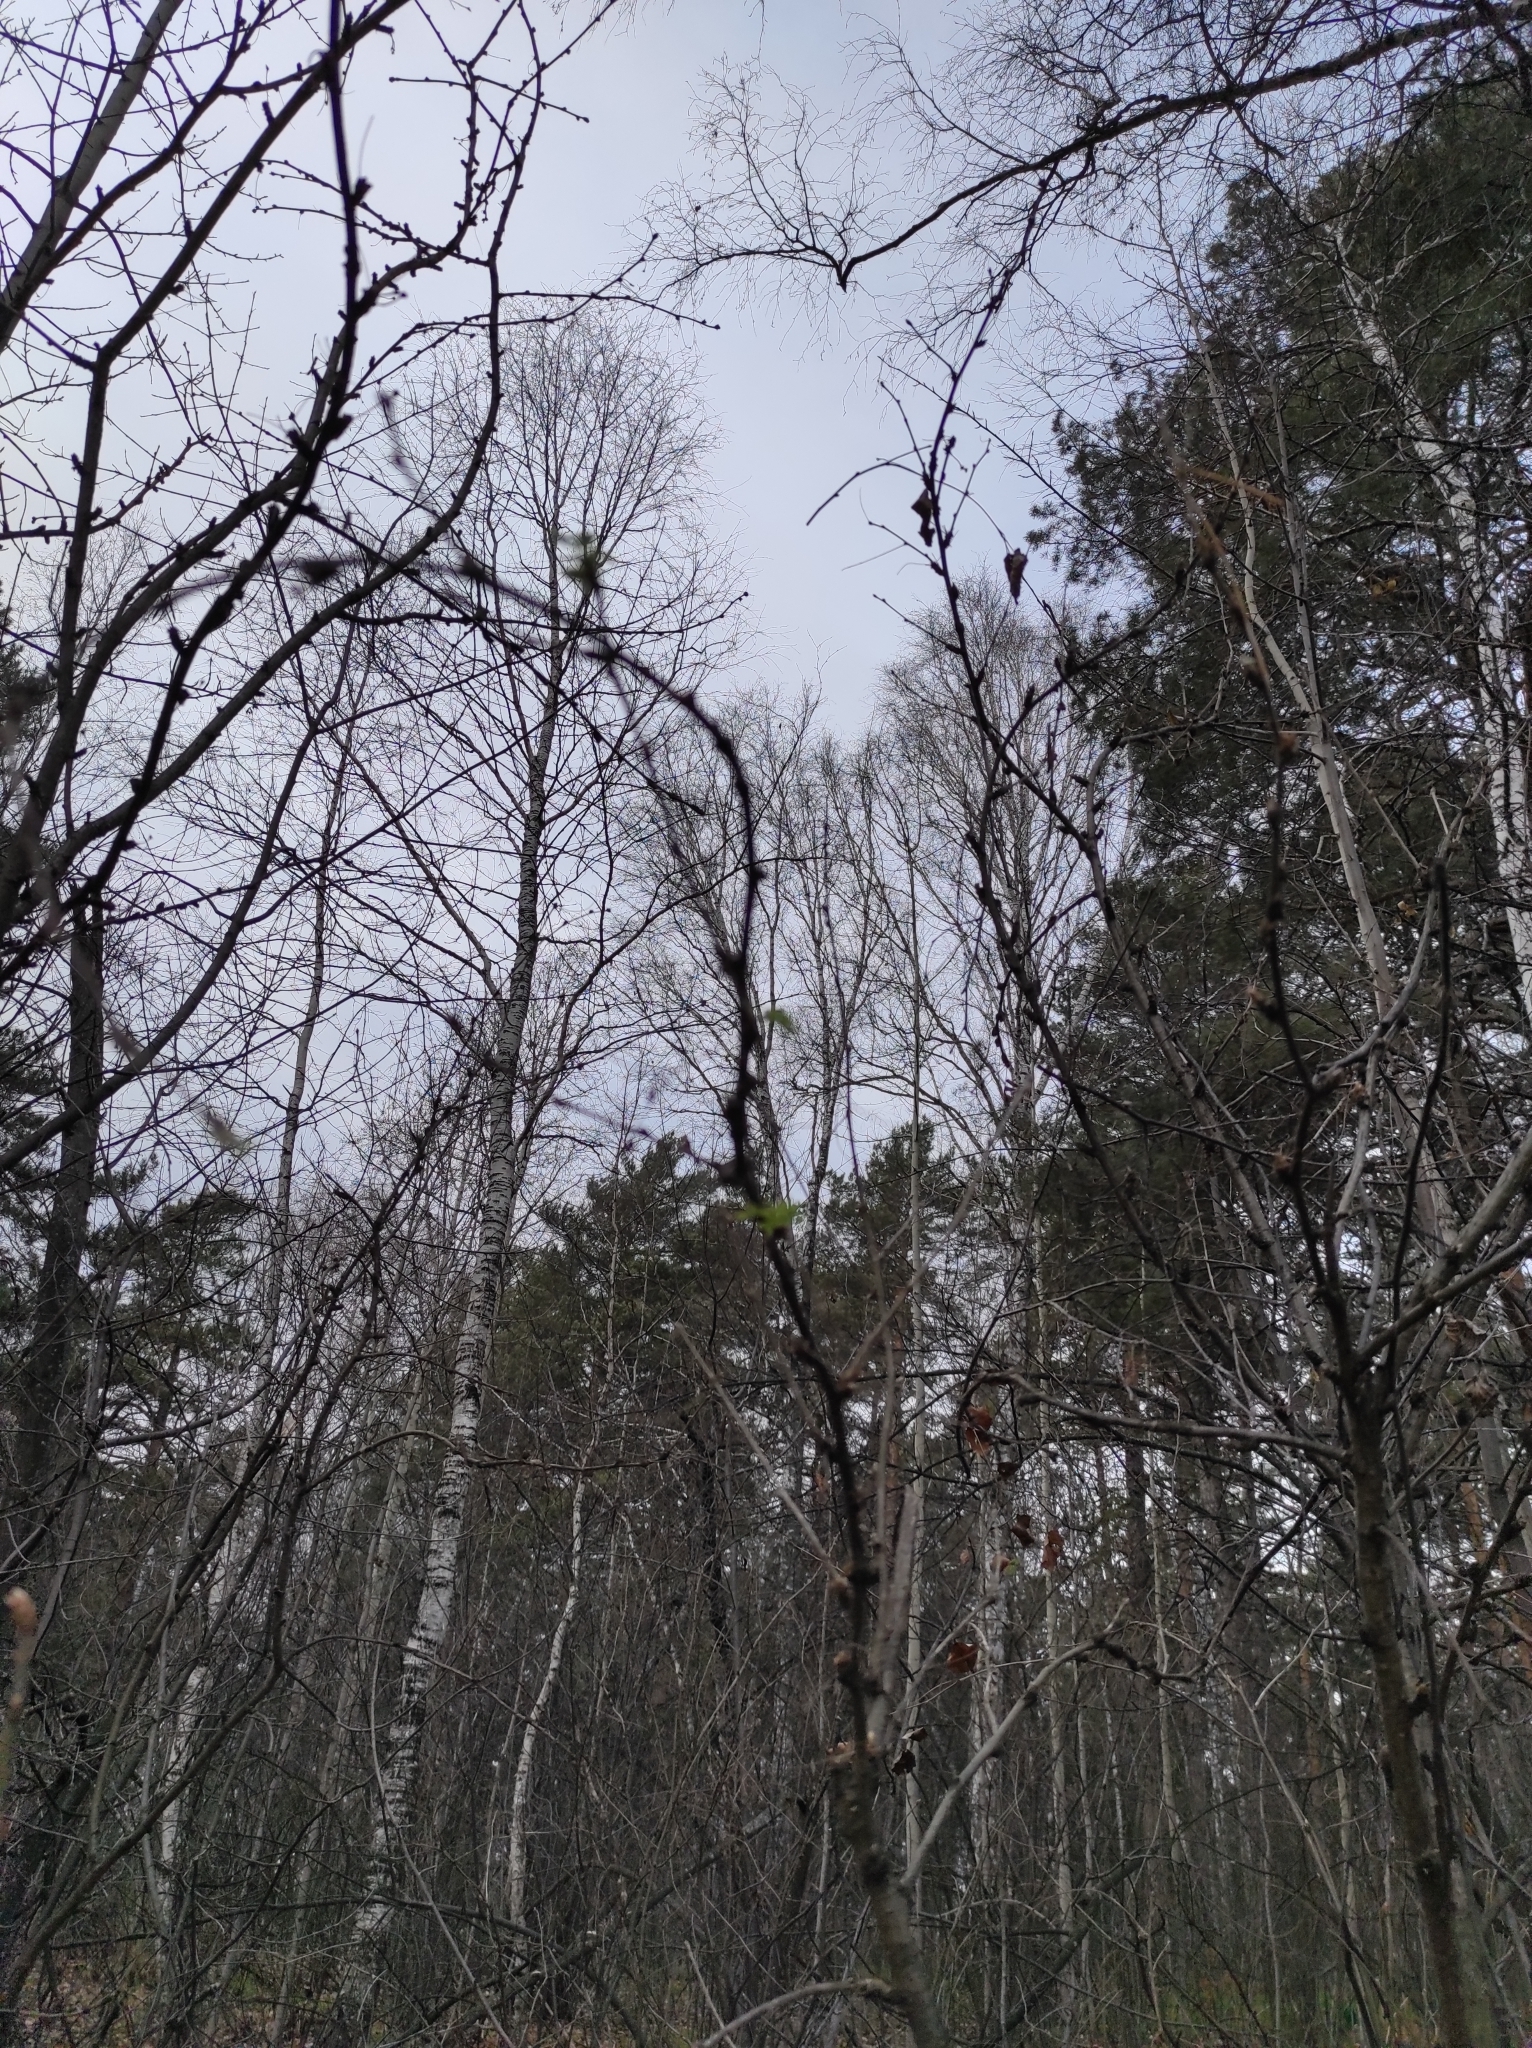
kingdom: Plantae
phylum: Tracheophyta
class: Magnoliopsida
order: Fabales
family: Fabaceae
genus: Caragana
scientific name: Caragana arborescens
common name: Siberian peashrub
